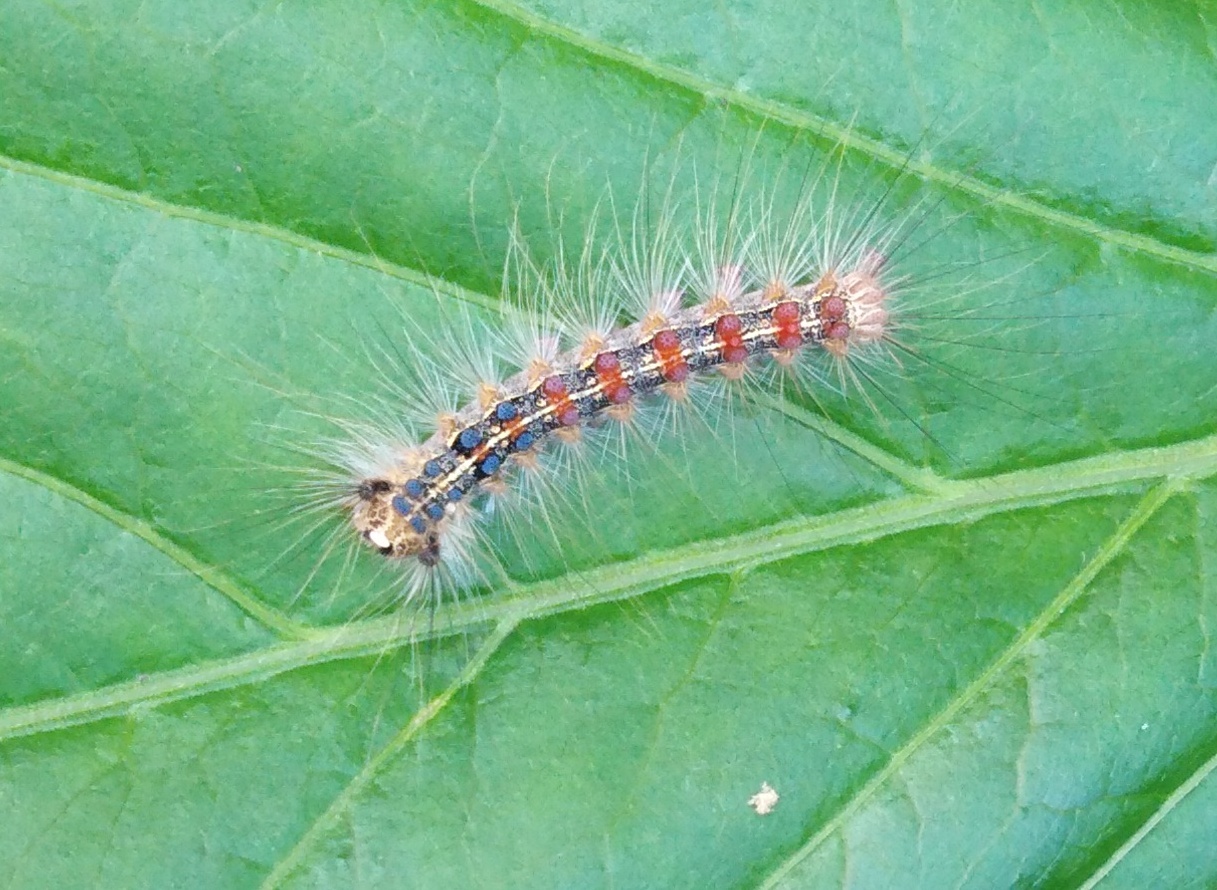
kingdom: Animalia
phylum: Arthropoda
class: Insecta
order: Lepidoptera
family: Erebidae
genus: Lymantria
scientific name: Lymantria dispar
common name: Gypsy moth
